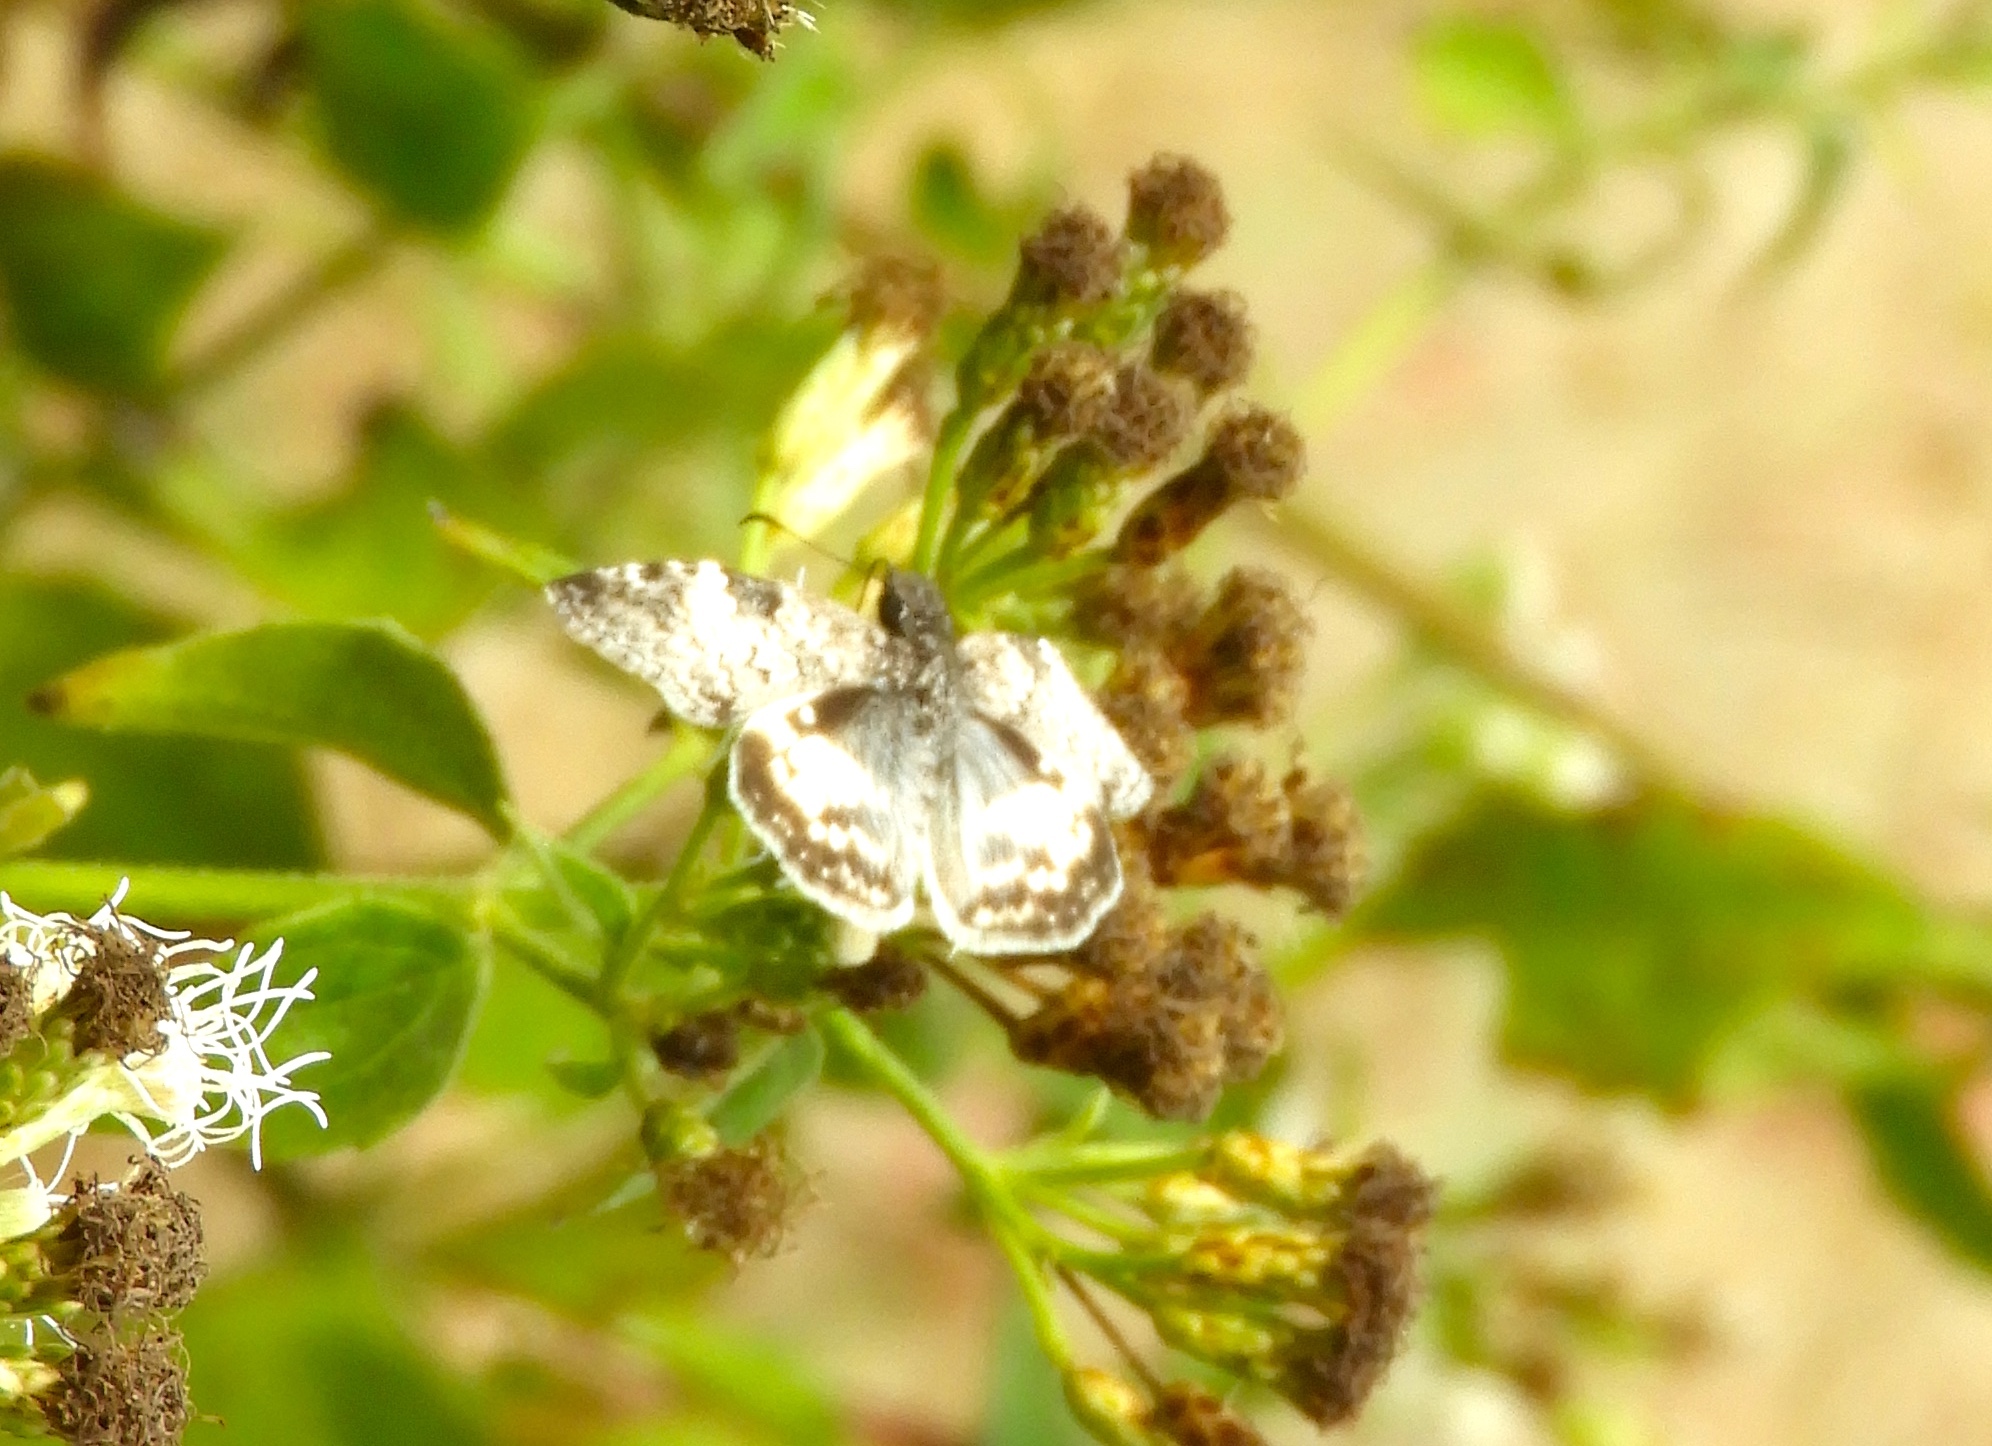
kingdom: Animalia
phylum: Arthropoda
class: Insecta
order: Lepidoptera
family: Hesperiidae
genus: Chiothion
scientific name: Chiothion georgina
